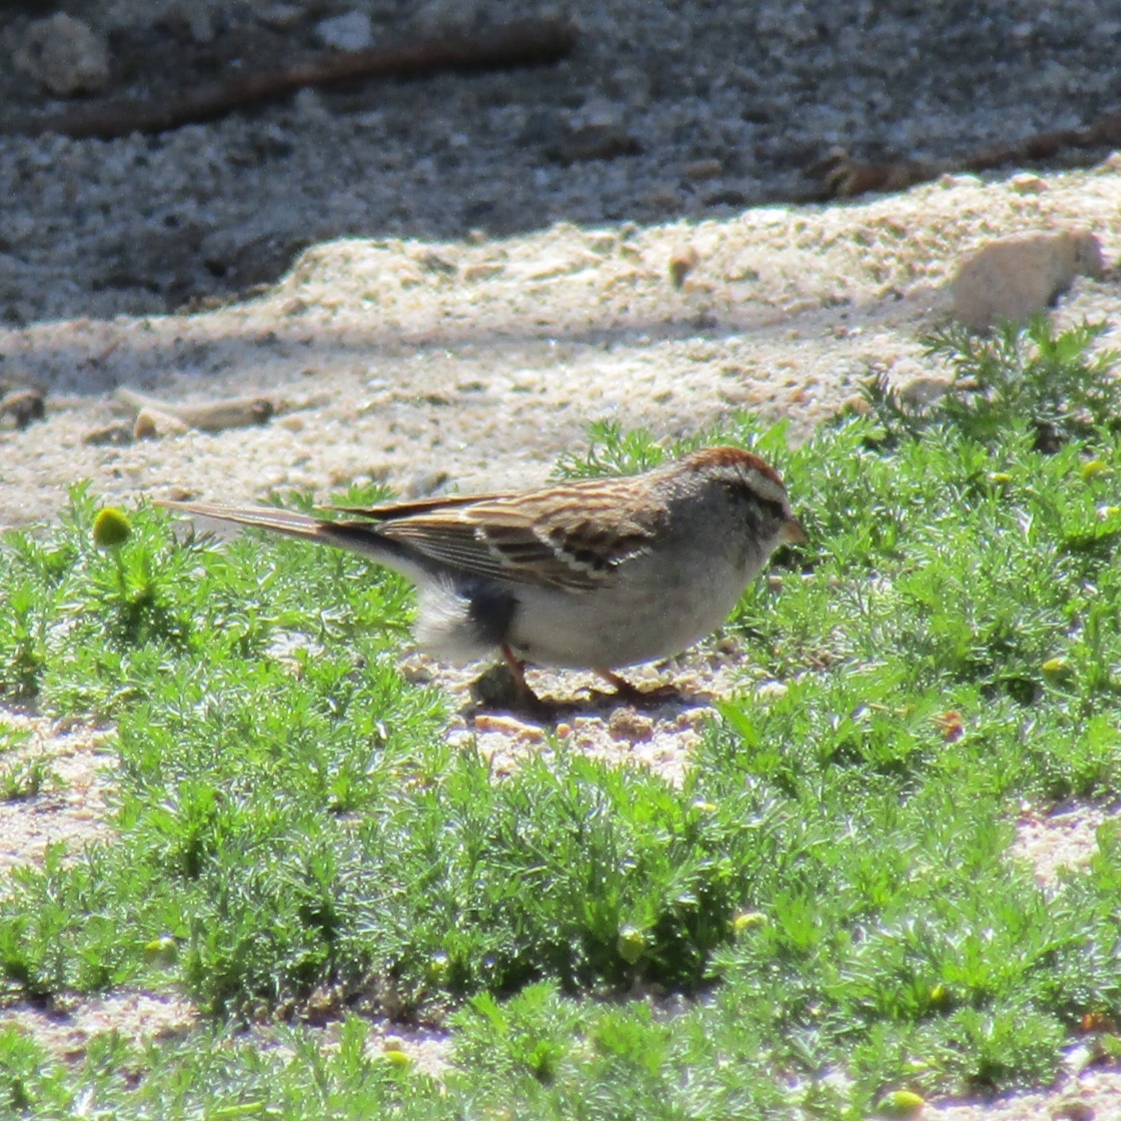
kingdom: Animalia
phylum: Chordata
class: Aves
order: Passeriformes
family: Passerellidae
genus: Spizella
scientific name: Spizella passerina
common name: Chipping sparrow
